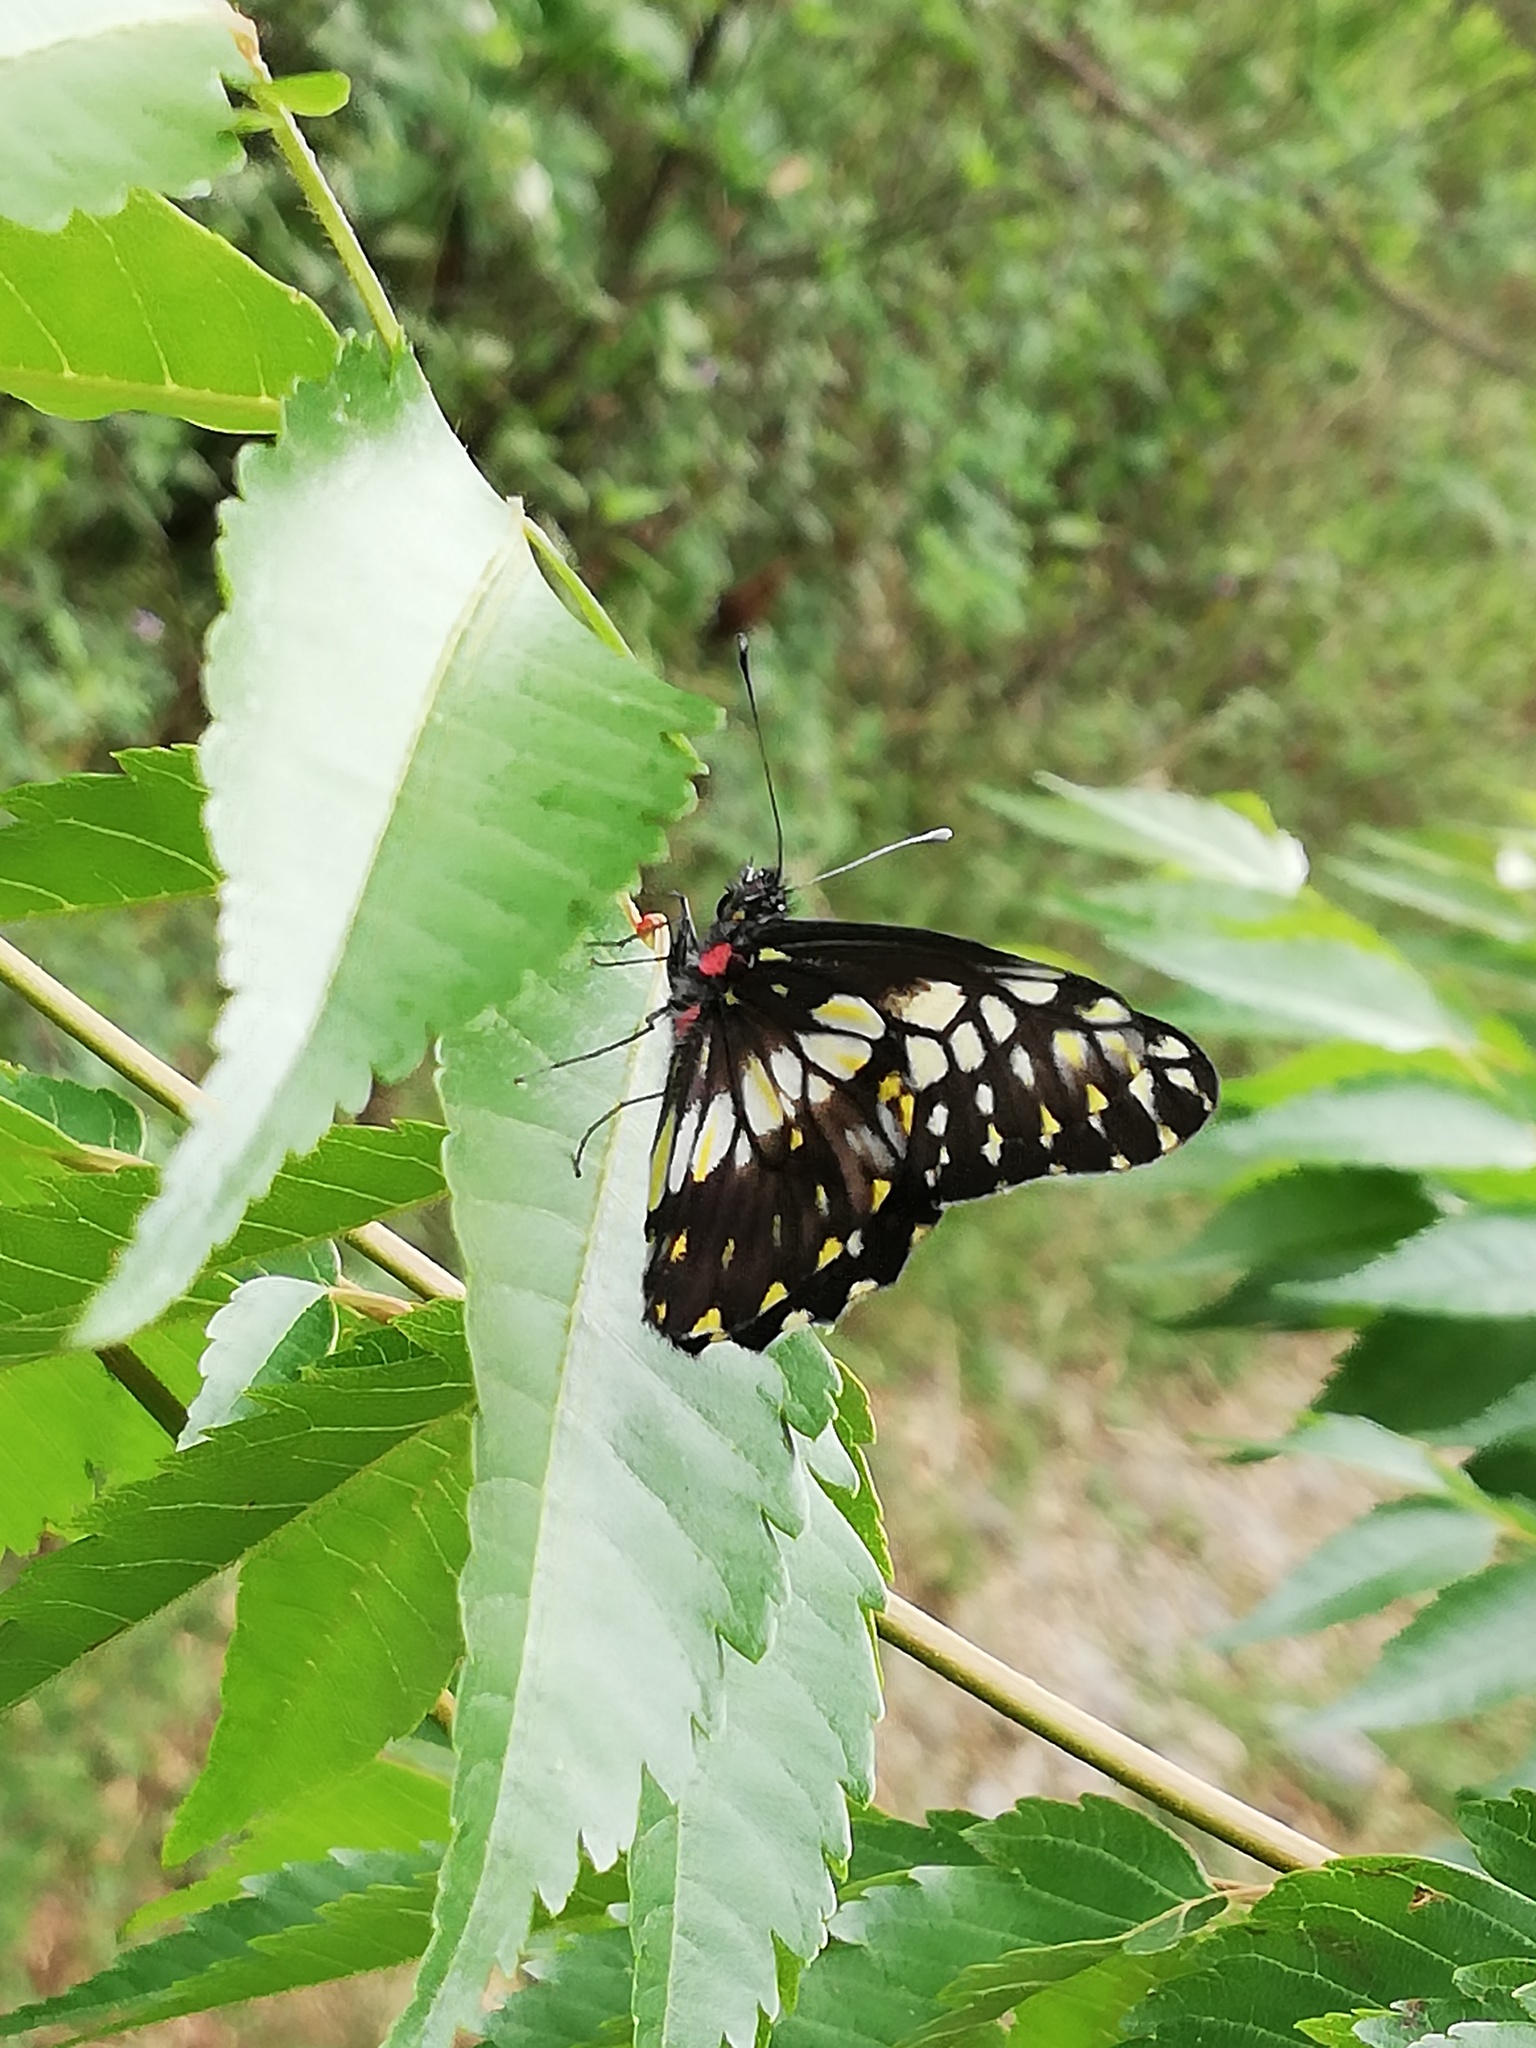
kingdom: Animalia
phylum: Arthropoda
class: Insecta
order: Lepidoptera
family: Pieridae
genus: Archonias
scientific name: Archonias nimbice
